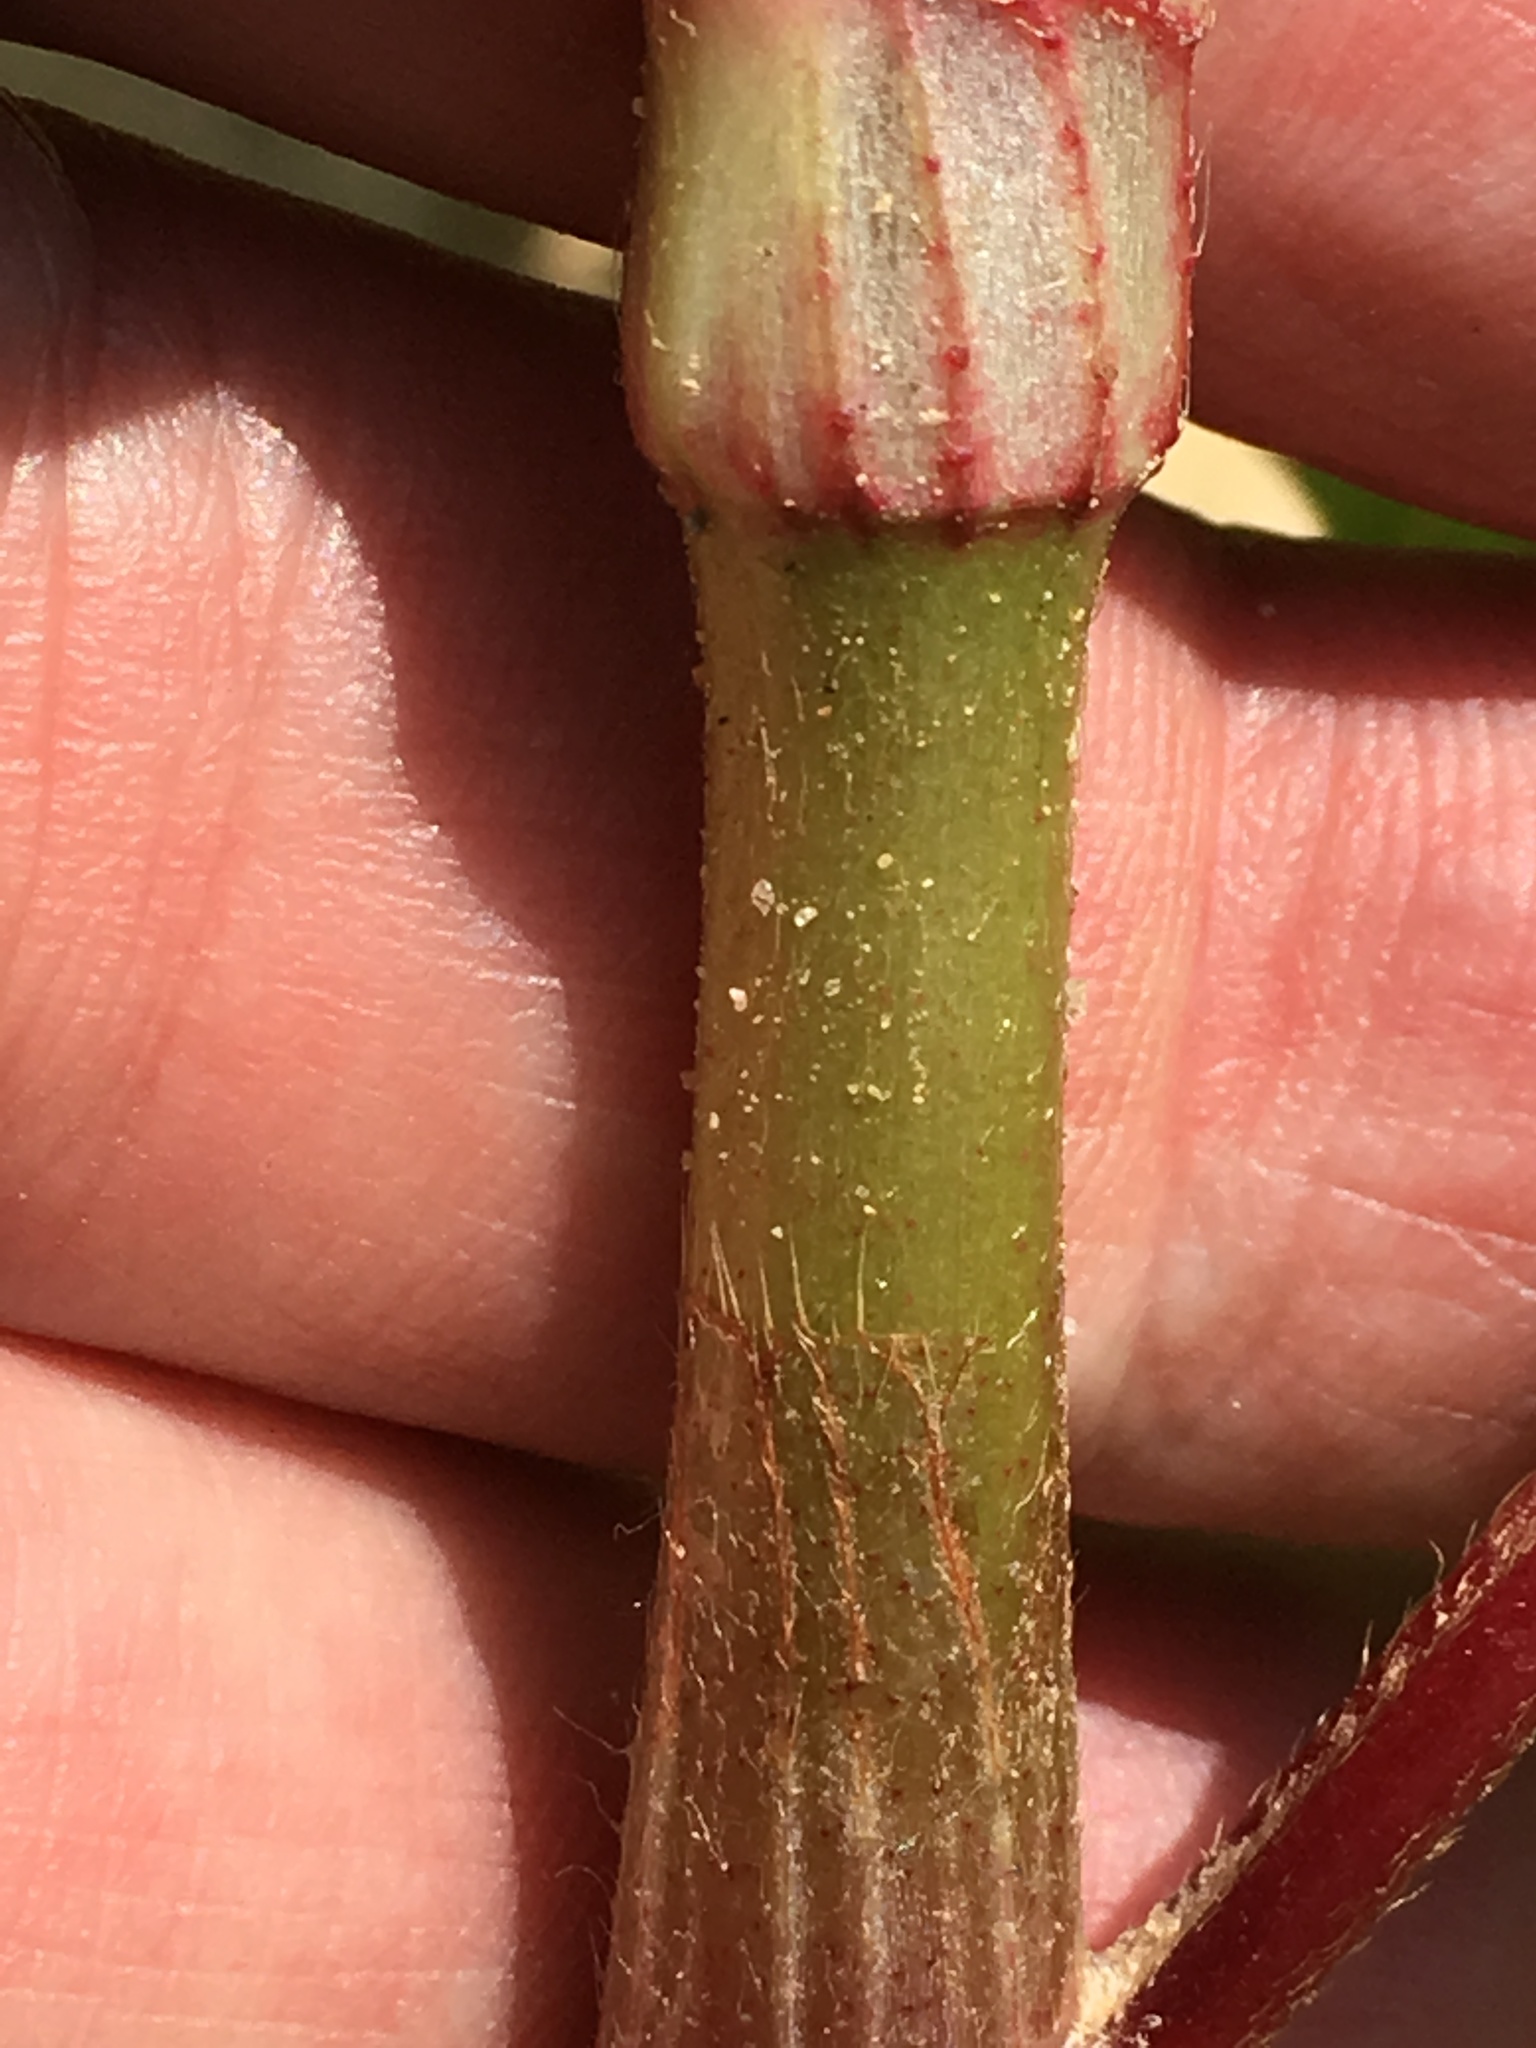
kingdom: Plantae
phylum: Tracheophyta
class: Magnoliopsida
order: Caryophyllales
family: Polygonaceae
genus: Persicaria
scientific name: Persicaria extremiorientalis
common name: Far-eastern smartweed
